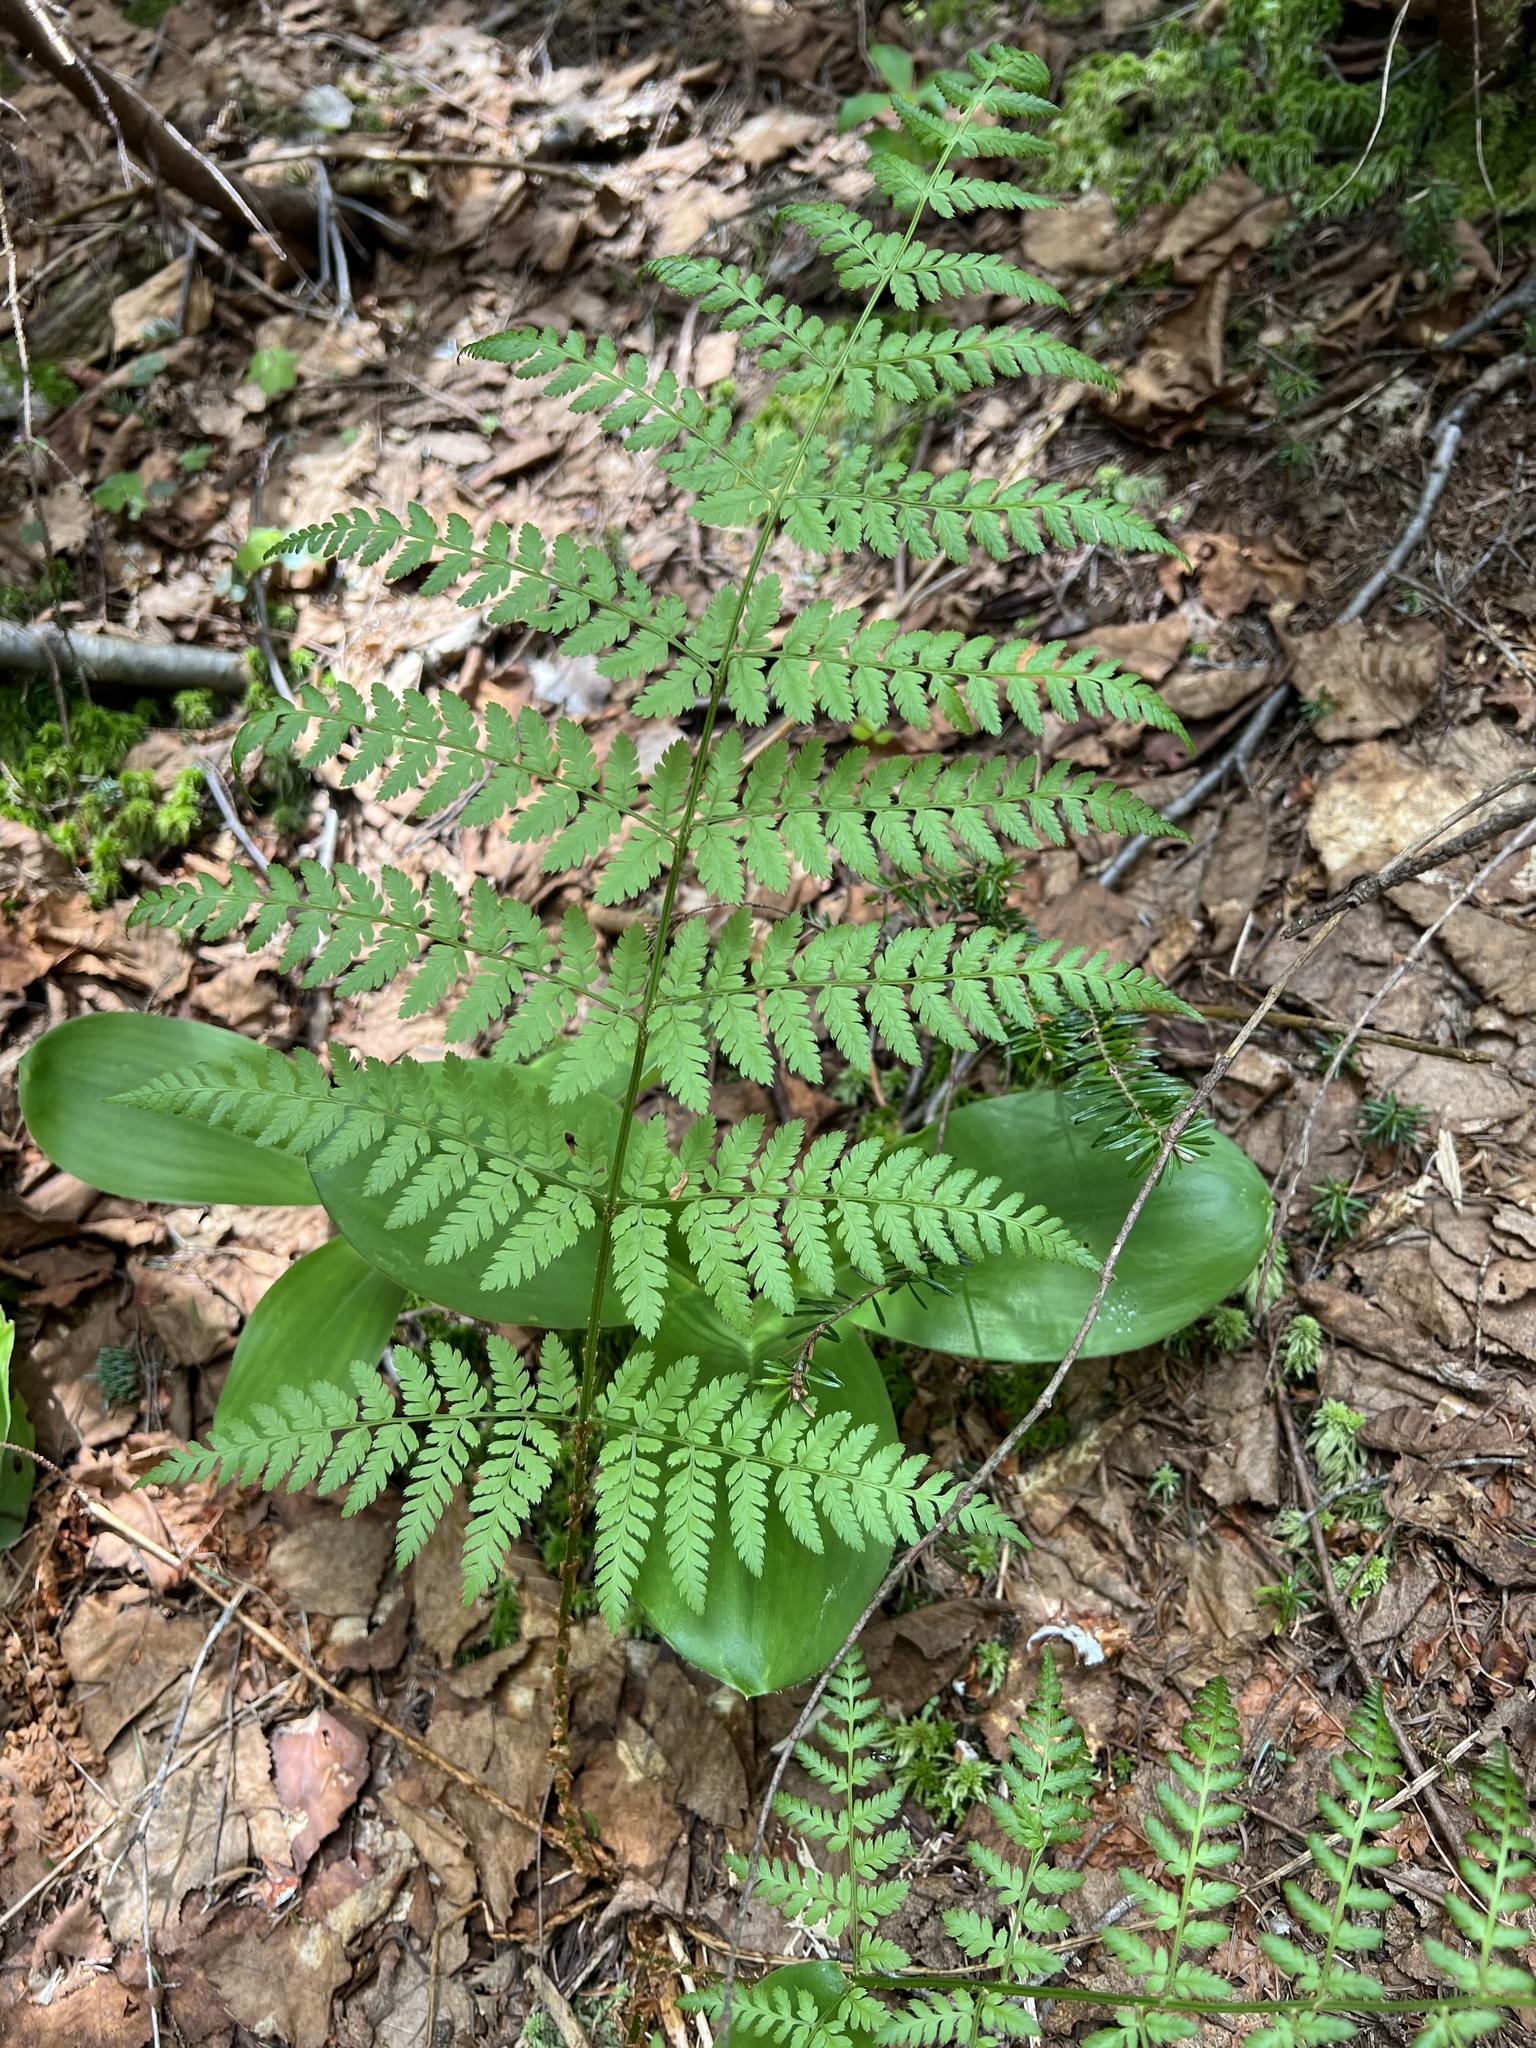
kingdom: Plantae
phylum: Tracheophyta
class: Polypodiopsida
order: Polypodiales
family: Dryopteridaceae
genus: Dryopteris
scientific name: Dryopteris campyloptera
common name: Mountain wood fern
